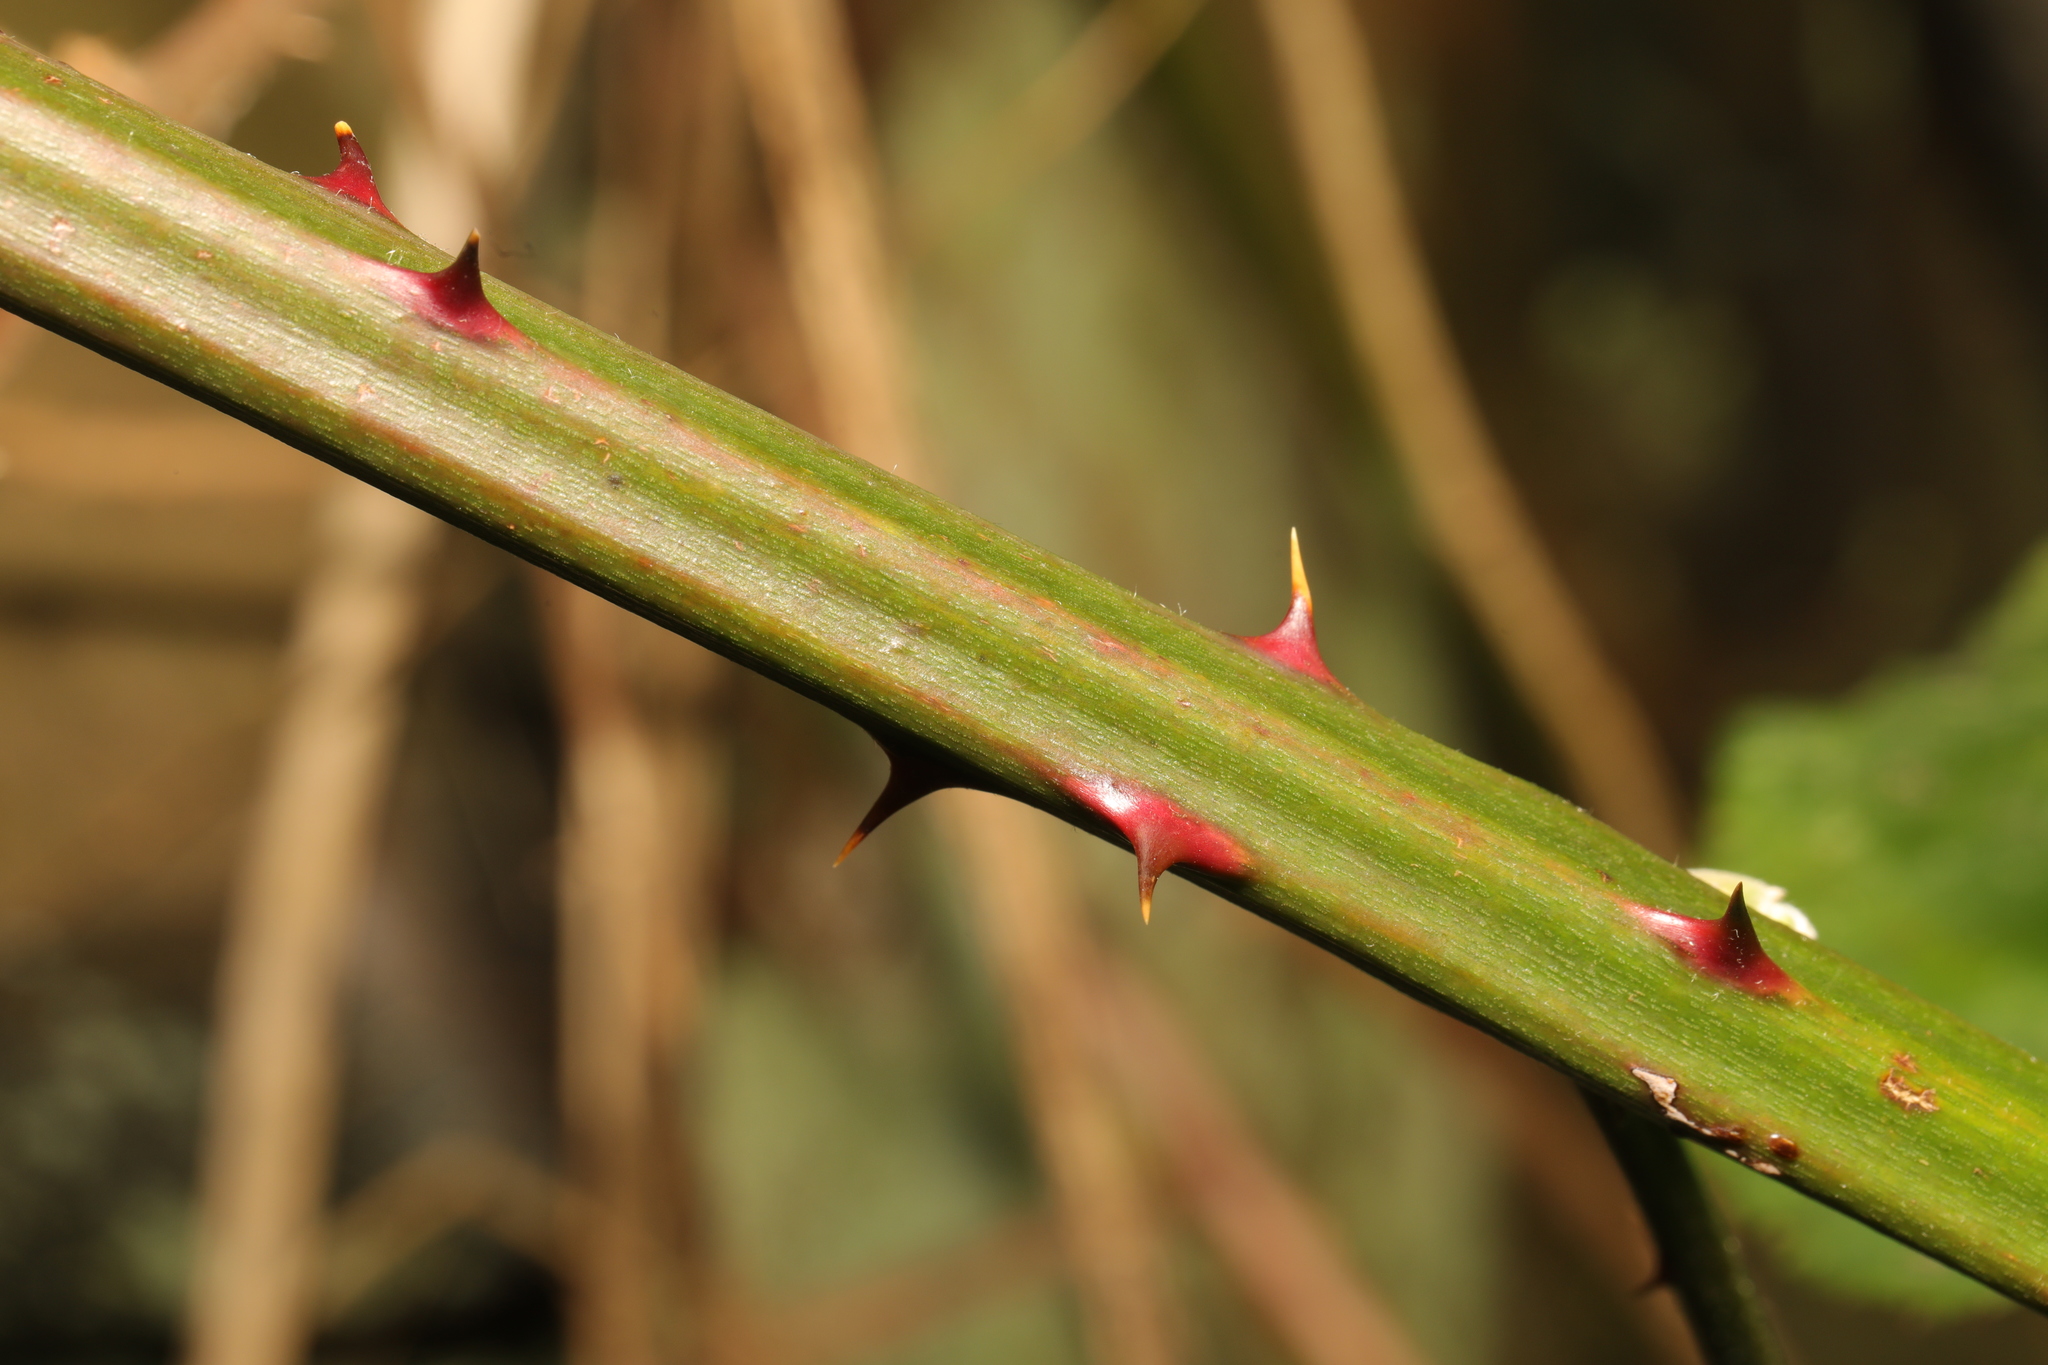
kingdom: Plantae
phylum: Tracheophyta
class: Magnoliopsida
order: Rosales
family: Rosaceae
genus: Rubus
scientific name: Rubus armeniacus
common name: Himalayan blackberry
